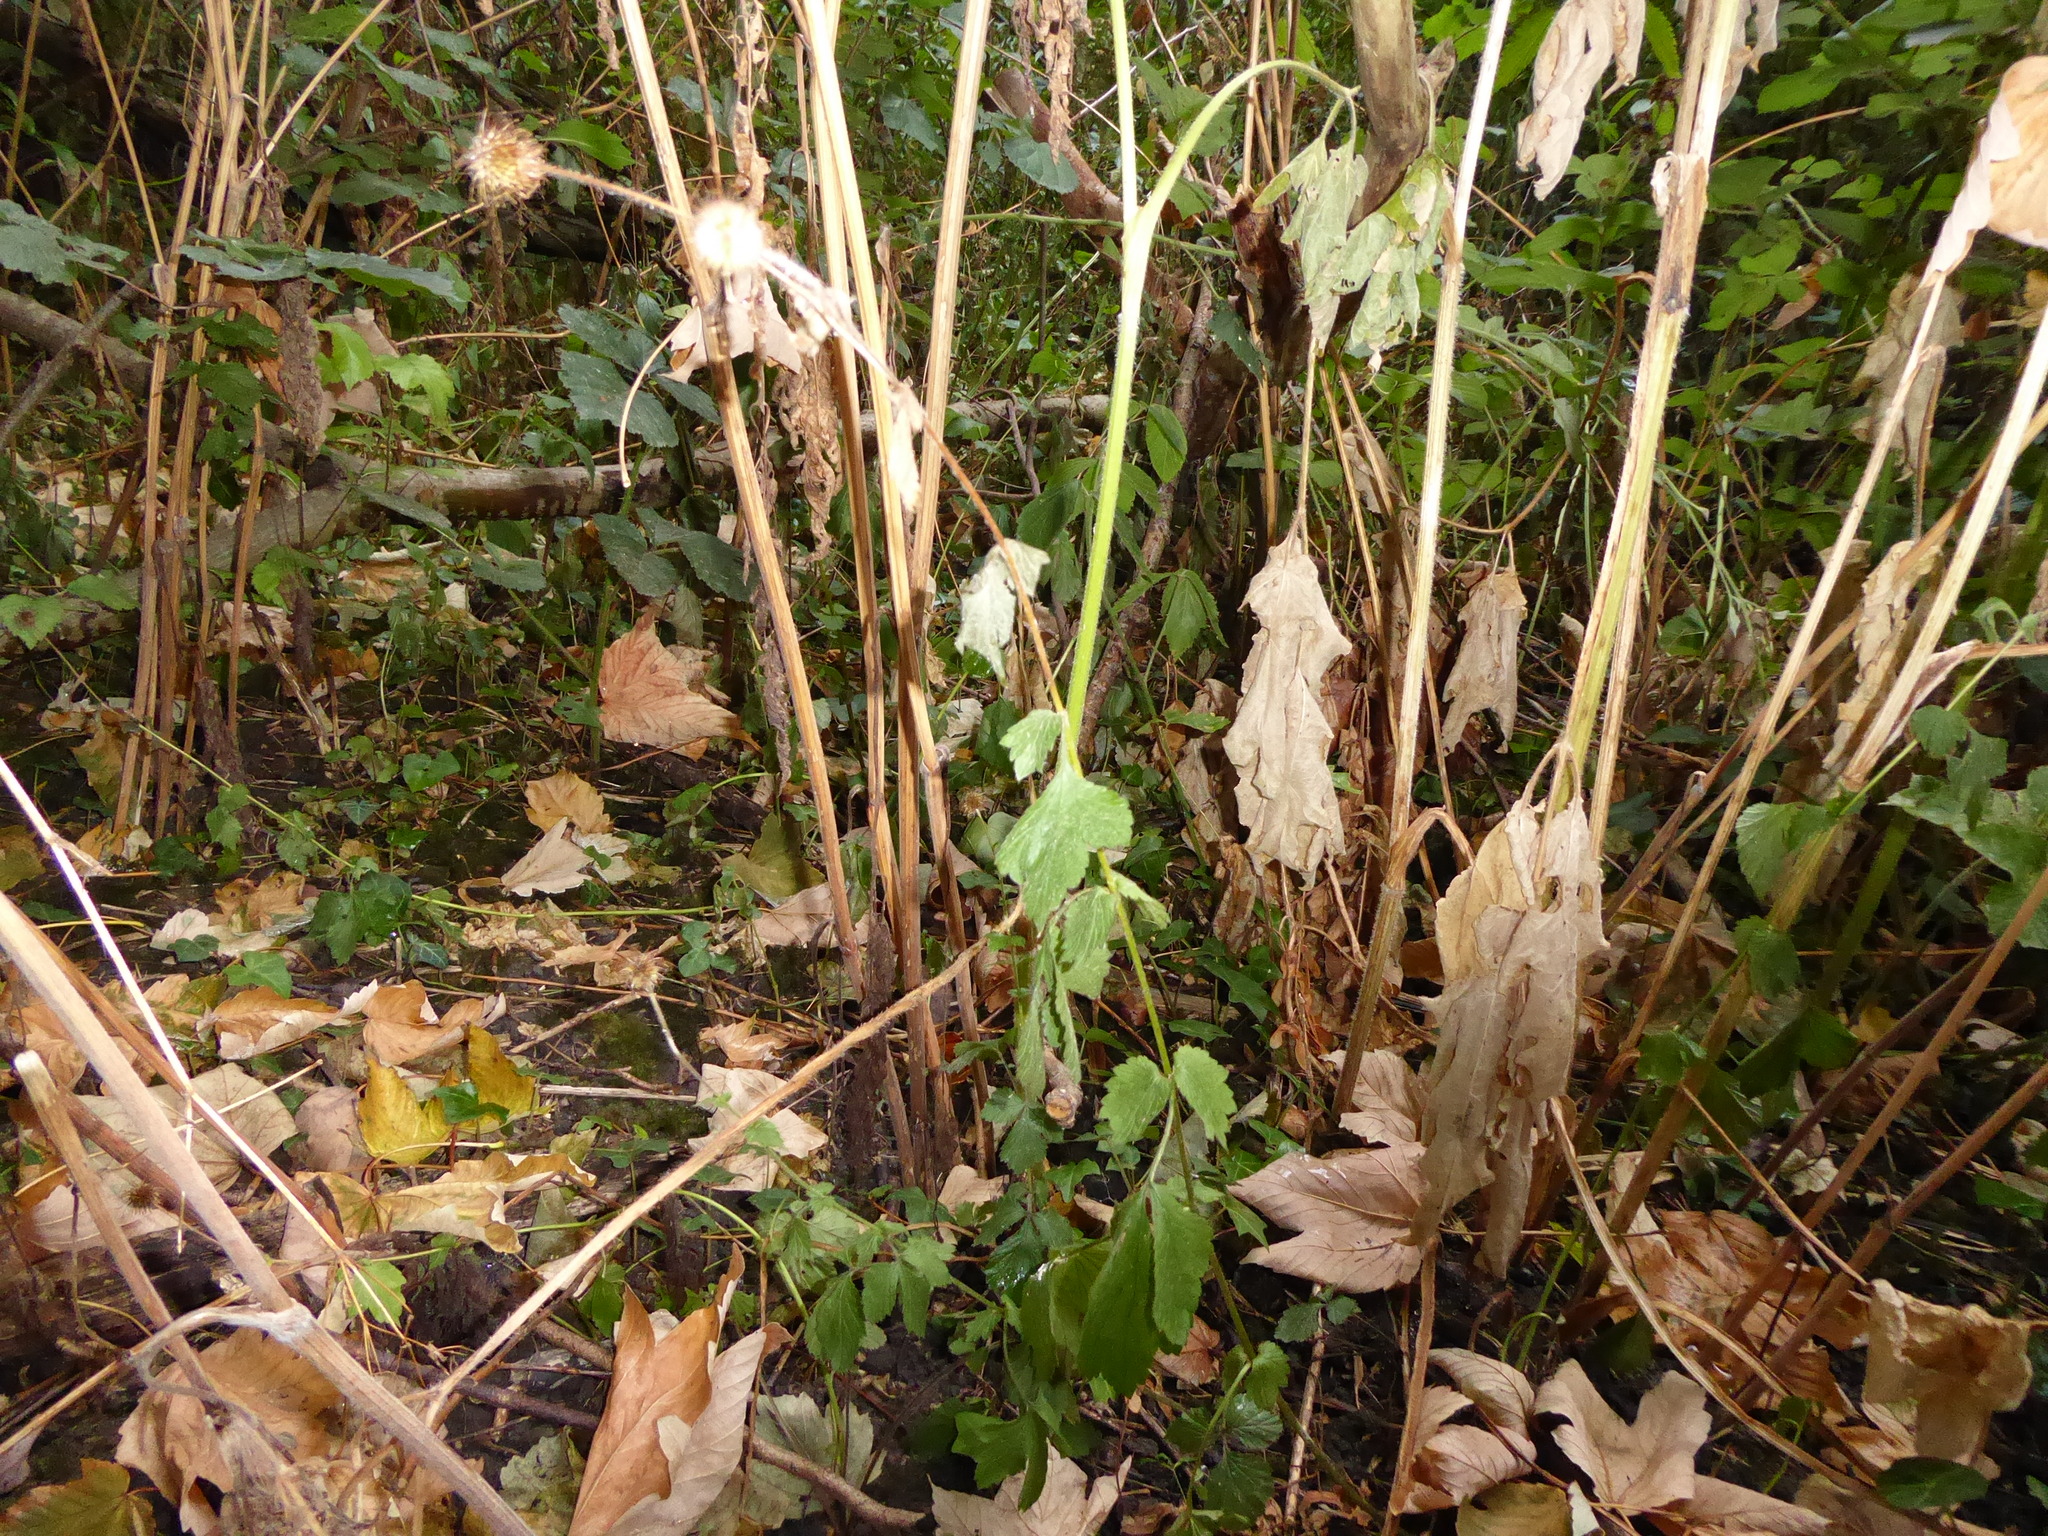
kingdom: Plantae
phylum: Tracheophyta
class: Magnoliopsida
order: Rosales
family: Rosaceae
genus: Geum
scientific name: Geum urbanum
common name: Wood avens
